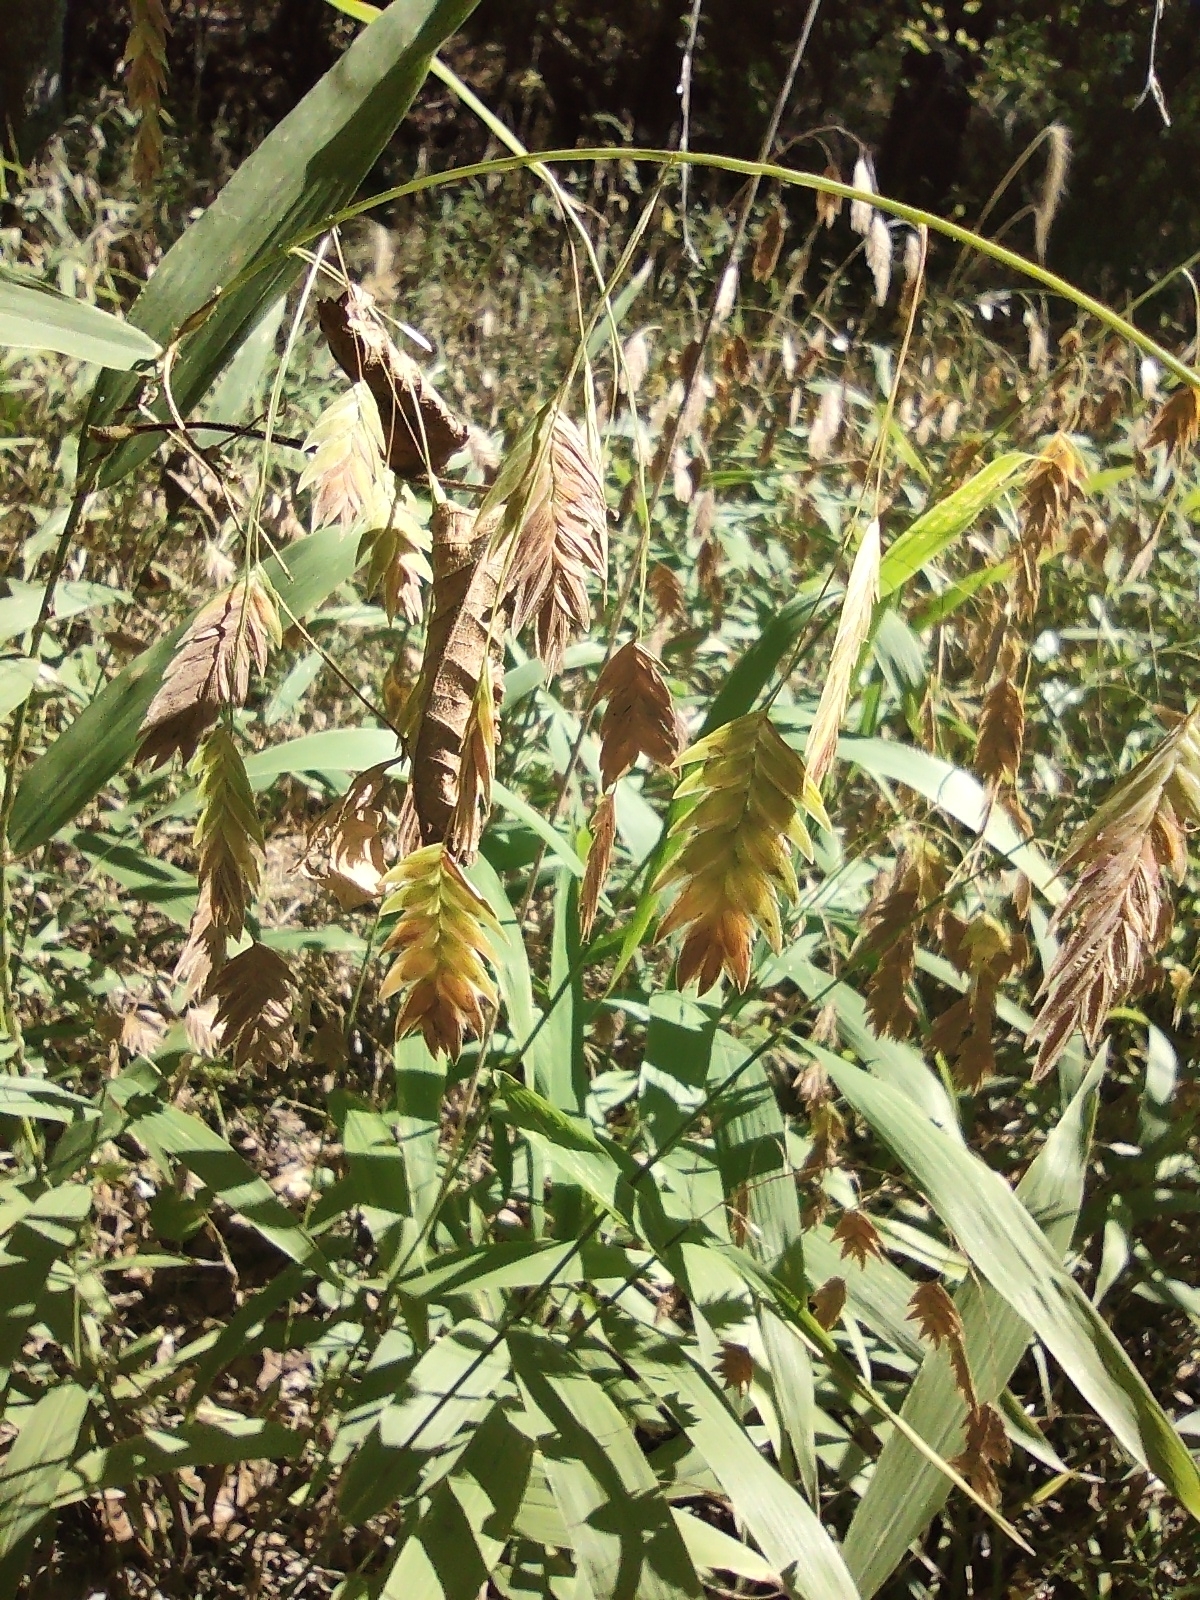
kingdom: Plantae
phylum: Tracheophyta
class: Liliopsida
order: Poales
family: Poaceae
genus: Chasmanthium
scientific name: Chasmanthium latifolium
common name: Broad-leaved chasmanthium
